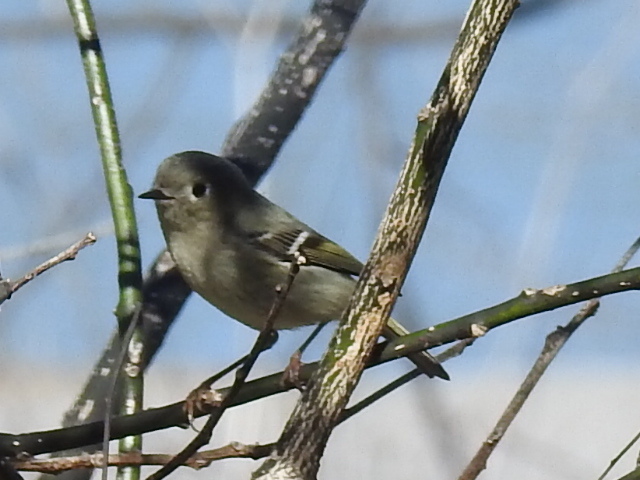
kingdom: Animalia
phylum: Chordata
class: Aves
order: Passeriformes
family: Regulidae
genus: Regulus
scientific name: Regulus calendula
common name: Ruby-crowned kinglet
